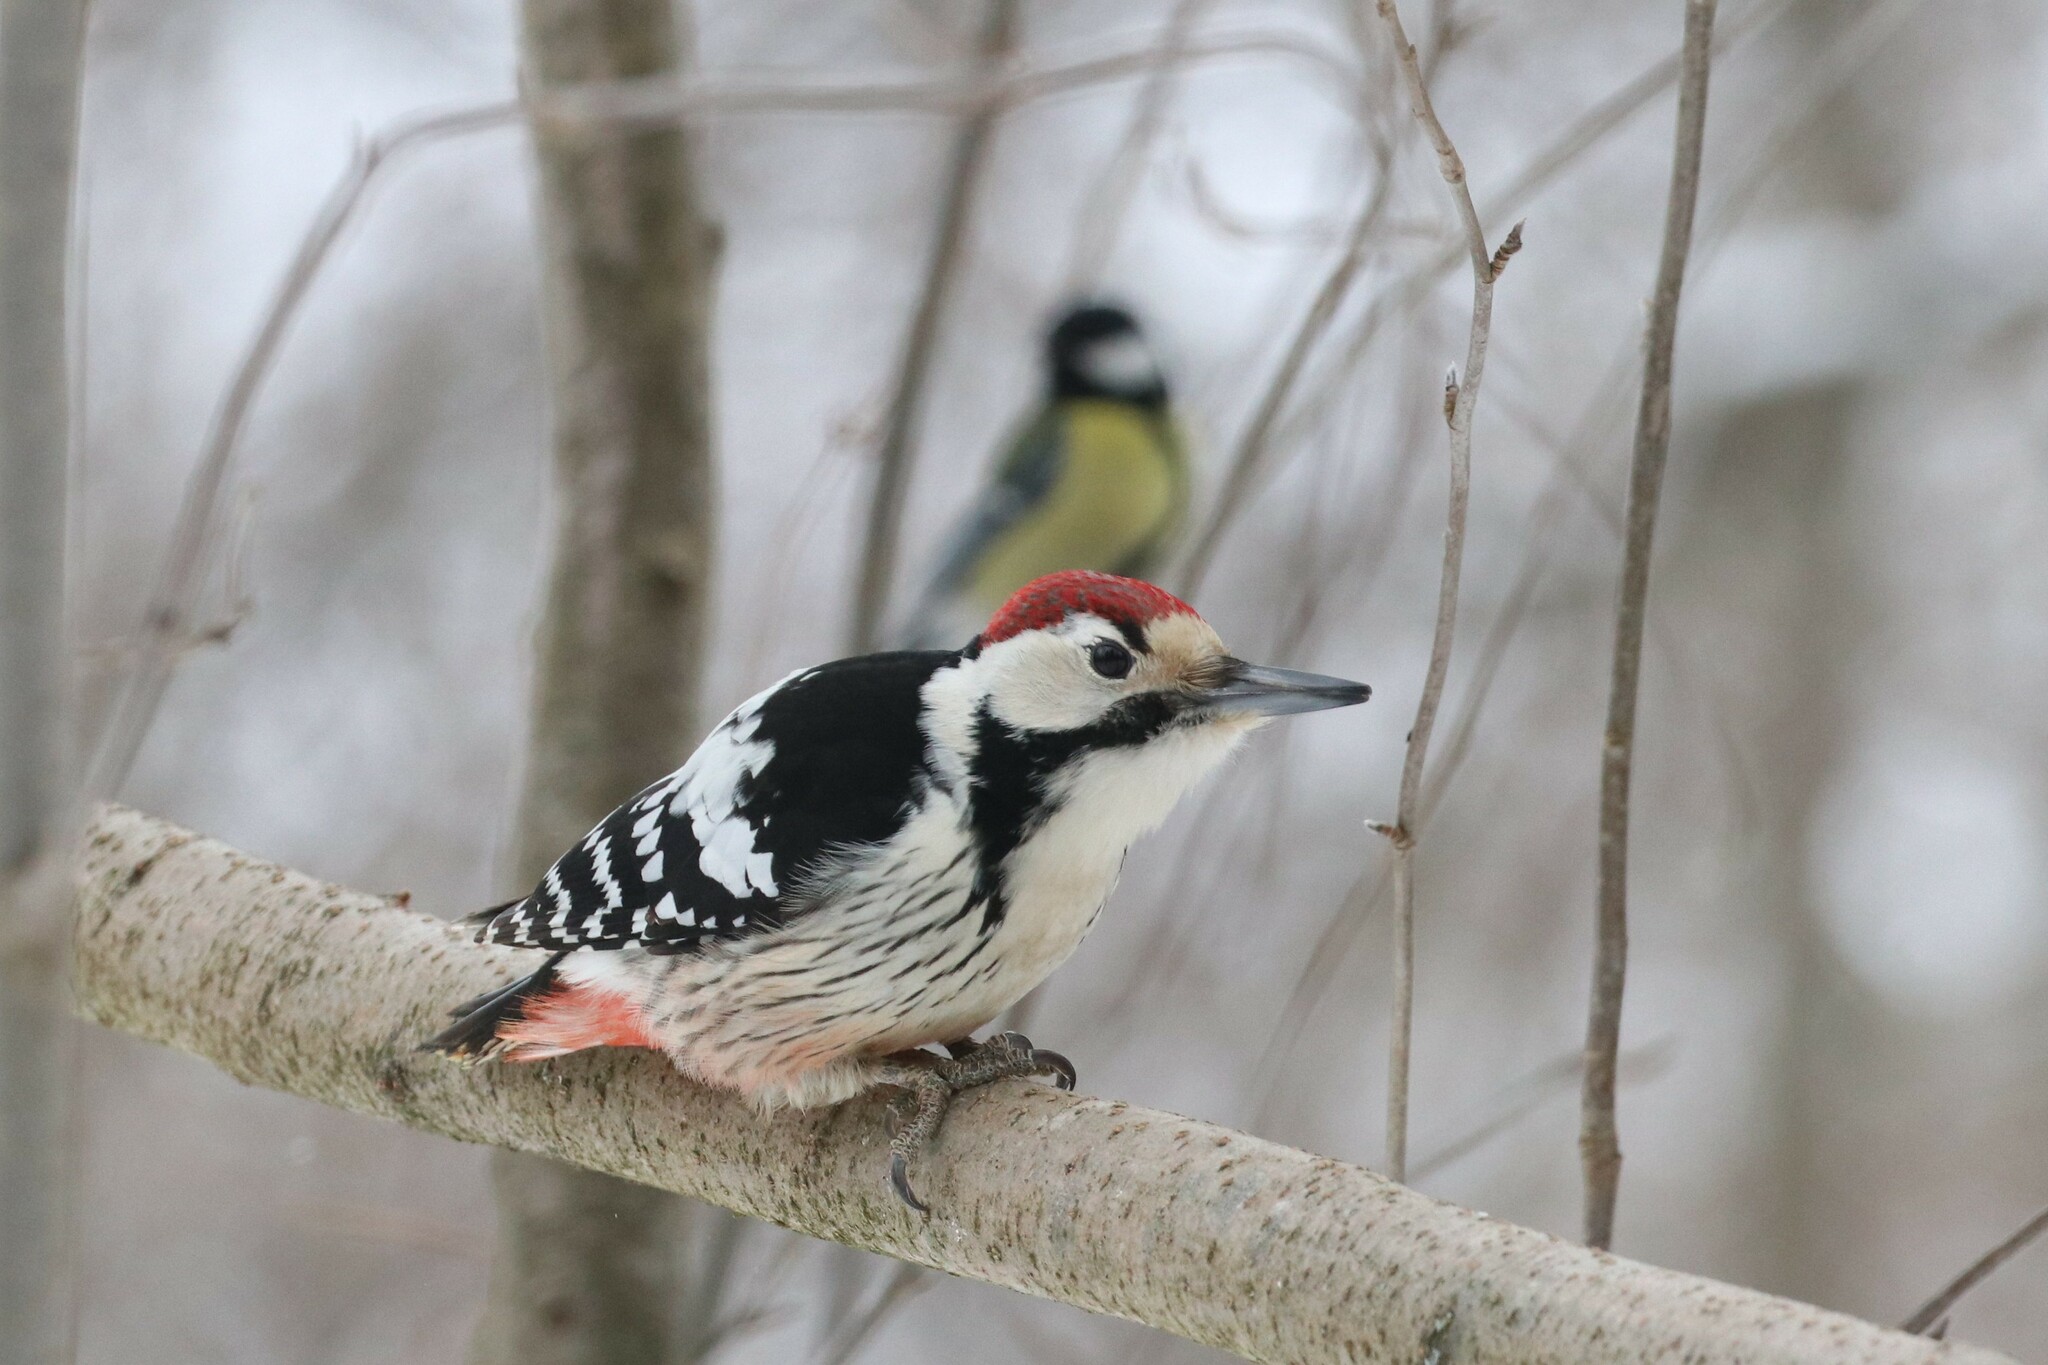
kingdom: Animalia
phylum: Chordata
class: Aves
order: Piciformes
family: Picidae
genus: Dendrocopos
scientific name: Dendrocopos leucotos
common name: White-backed woodpecker
